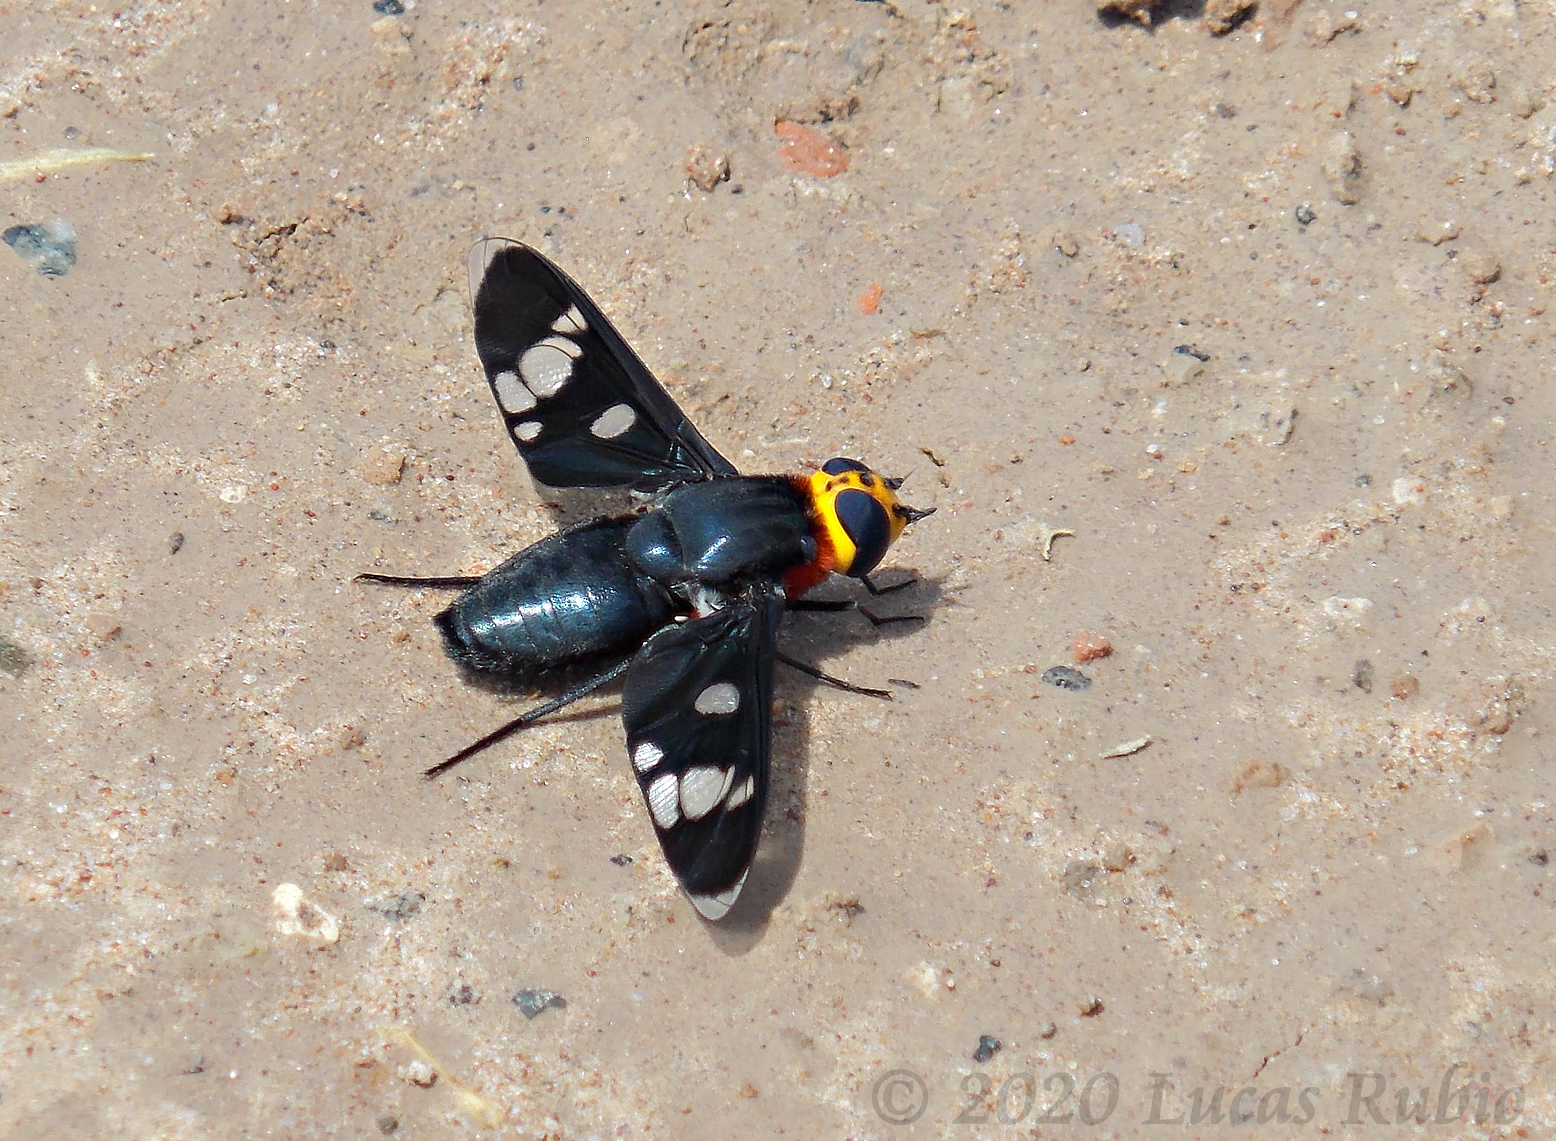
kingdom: Animalia
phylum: Arthropoda
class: Insecta
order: Diptera
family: Bombyliidae
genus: Hyperalonia
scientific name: Hyperalonia morio
